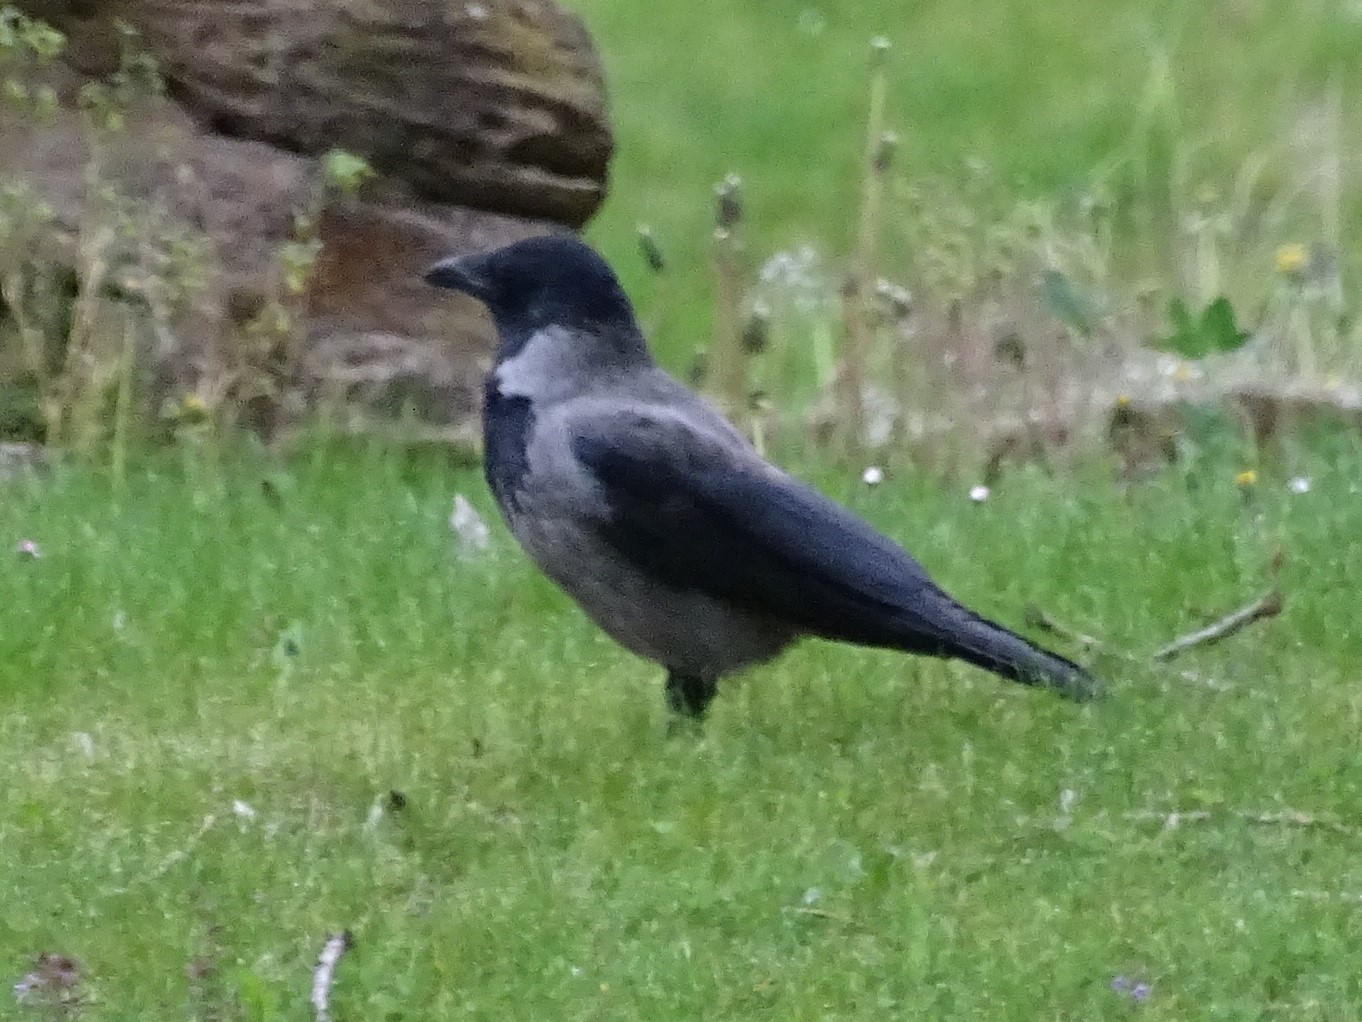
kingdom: Animalia
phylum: Chordata
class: Aves
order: Passeriformes
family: Corvidae
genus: Corvus
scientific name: Corvus cornix
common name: Hooded crow
